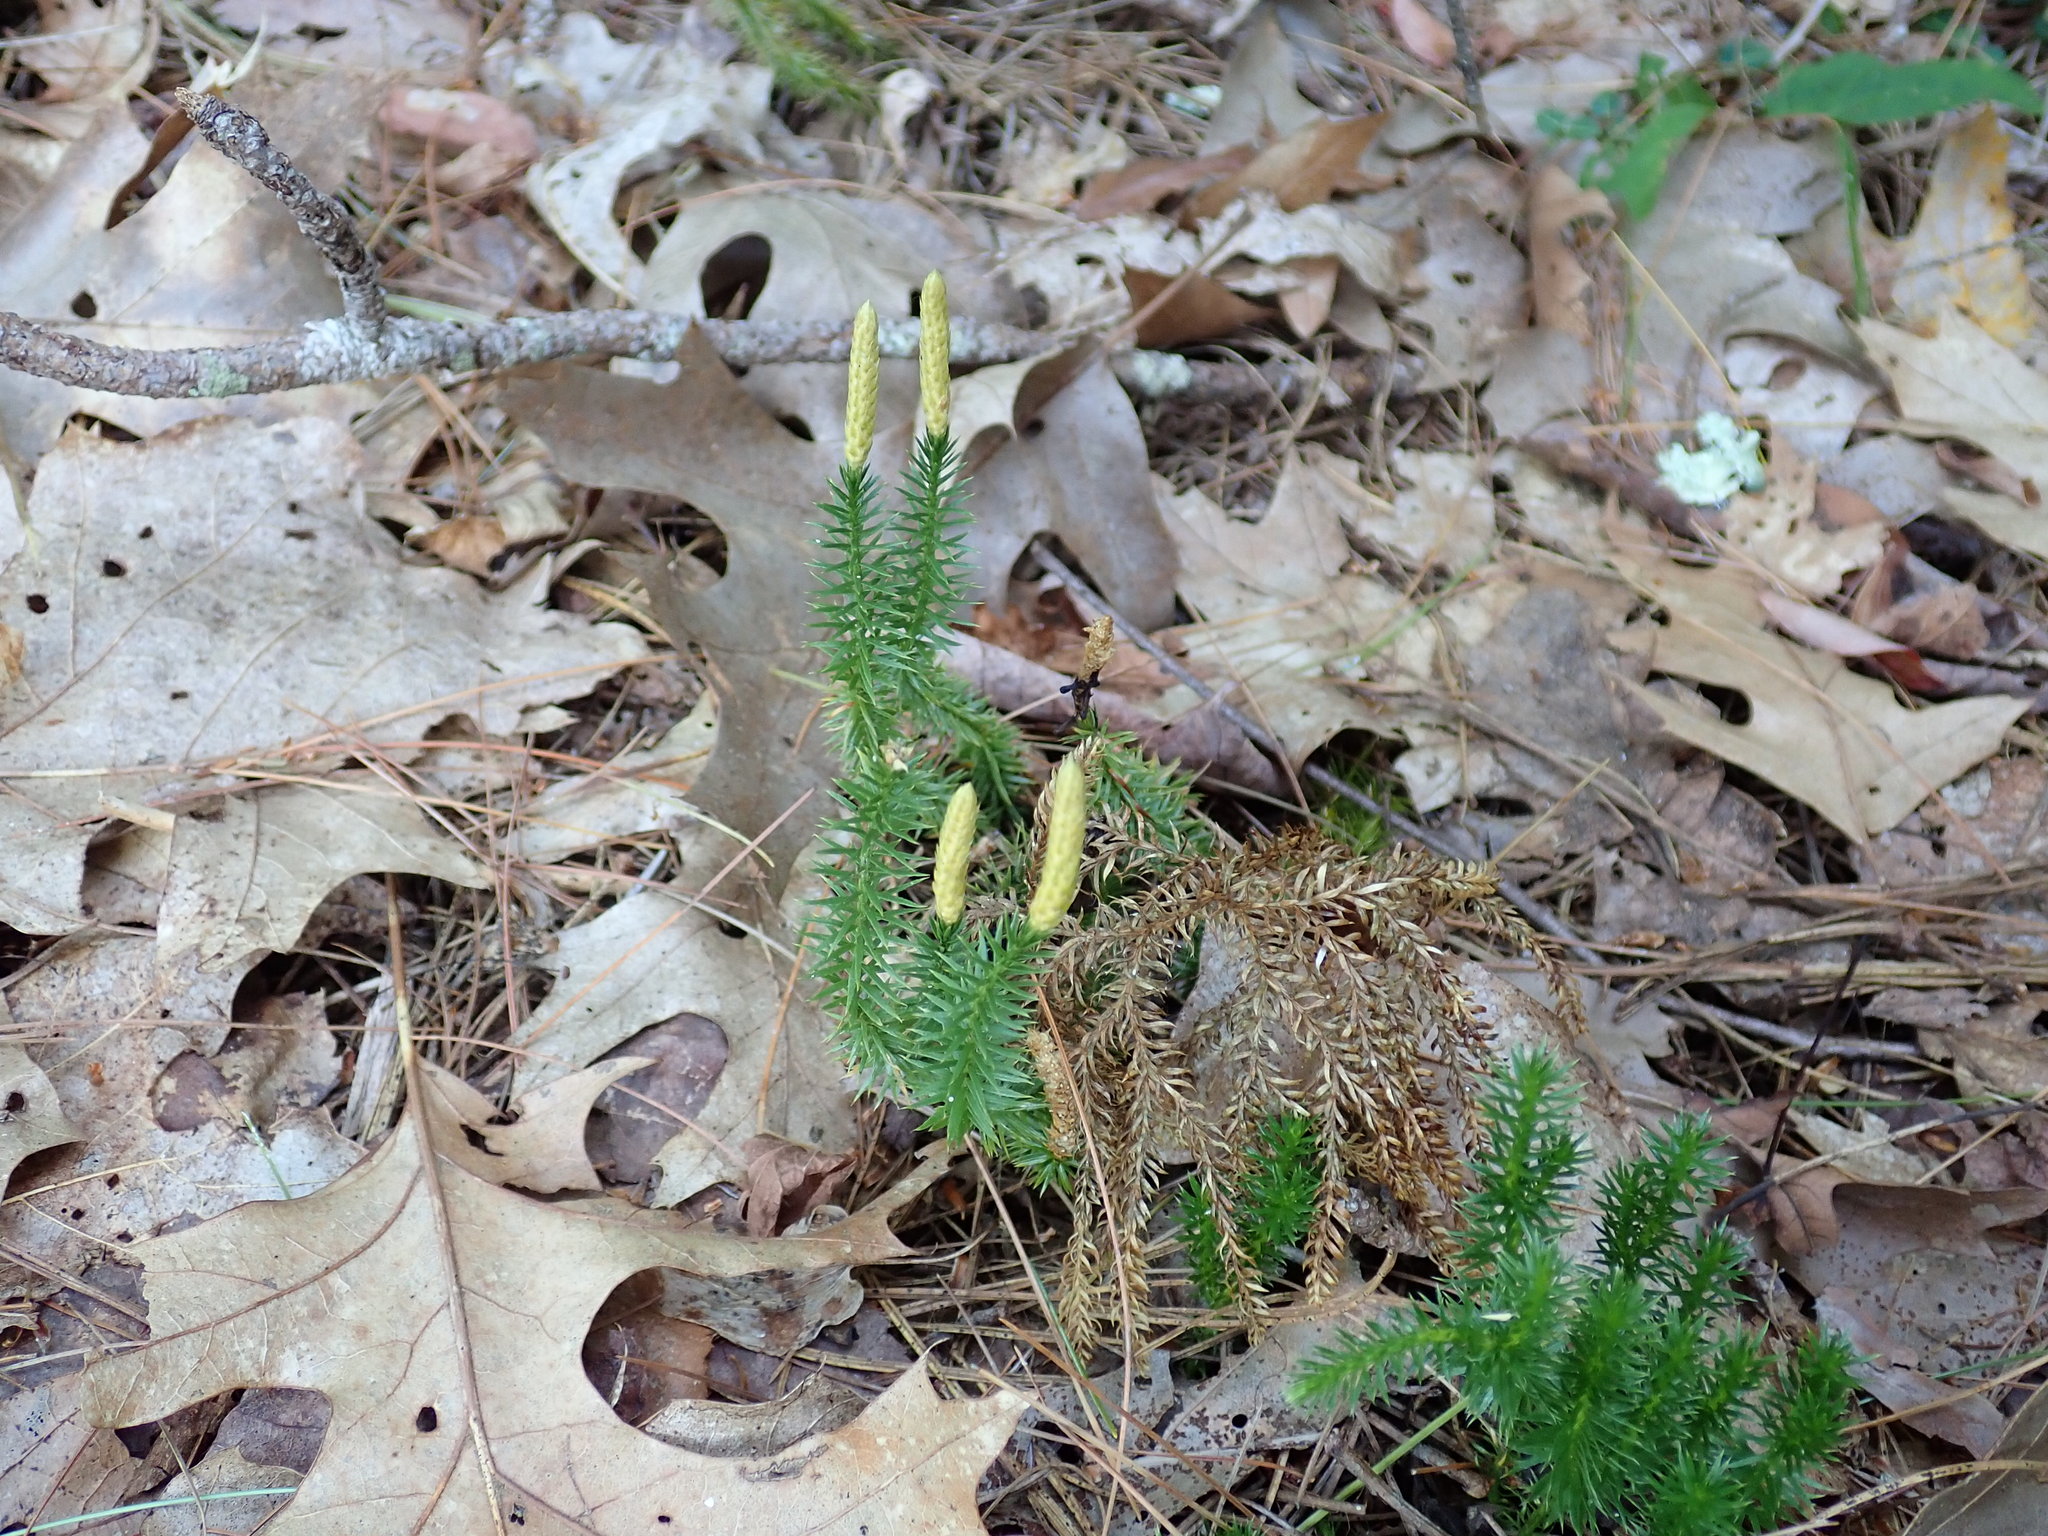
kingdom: Plantae
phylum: Tracheophyta
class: Lycopodiopsida
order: Lycopodiales
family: Lycopodiaceae
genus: Spinulum
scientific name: Spinulum annotinum
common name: Interrupted club-moss
